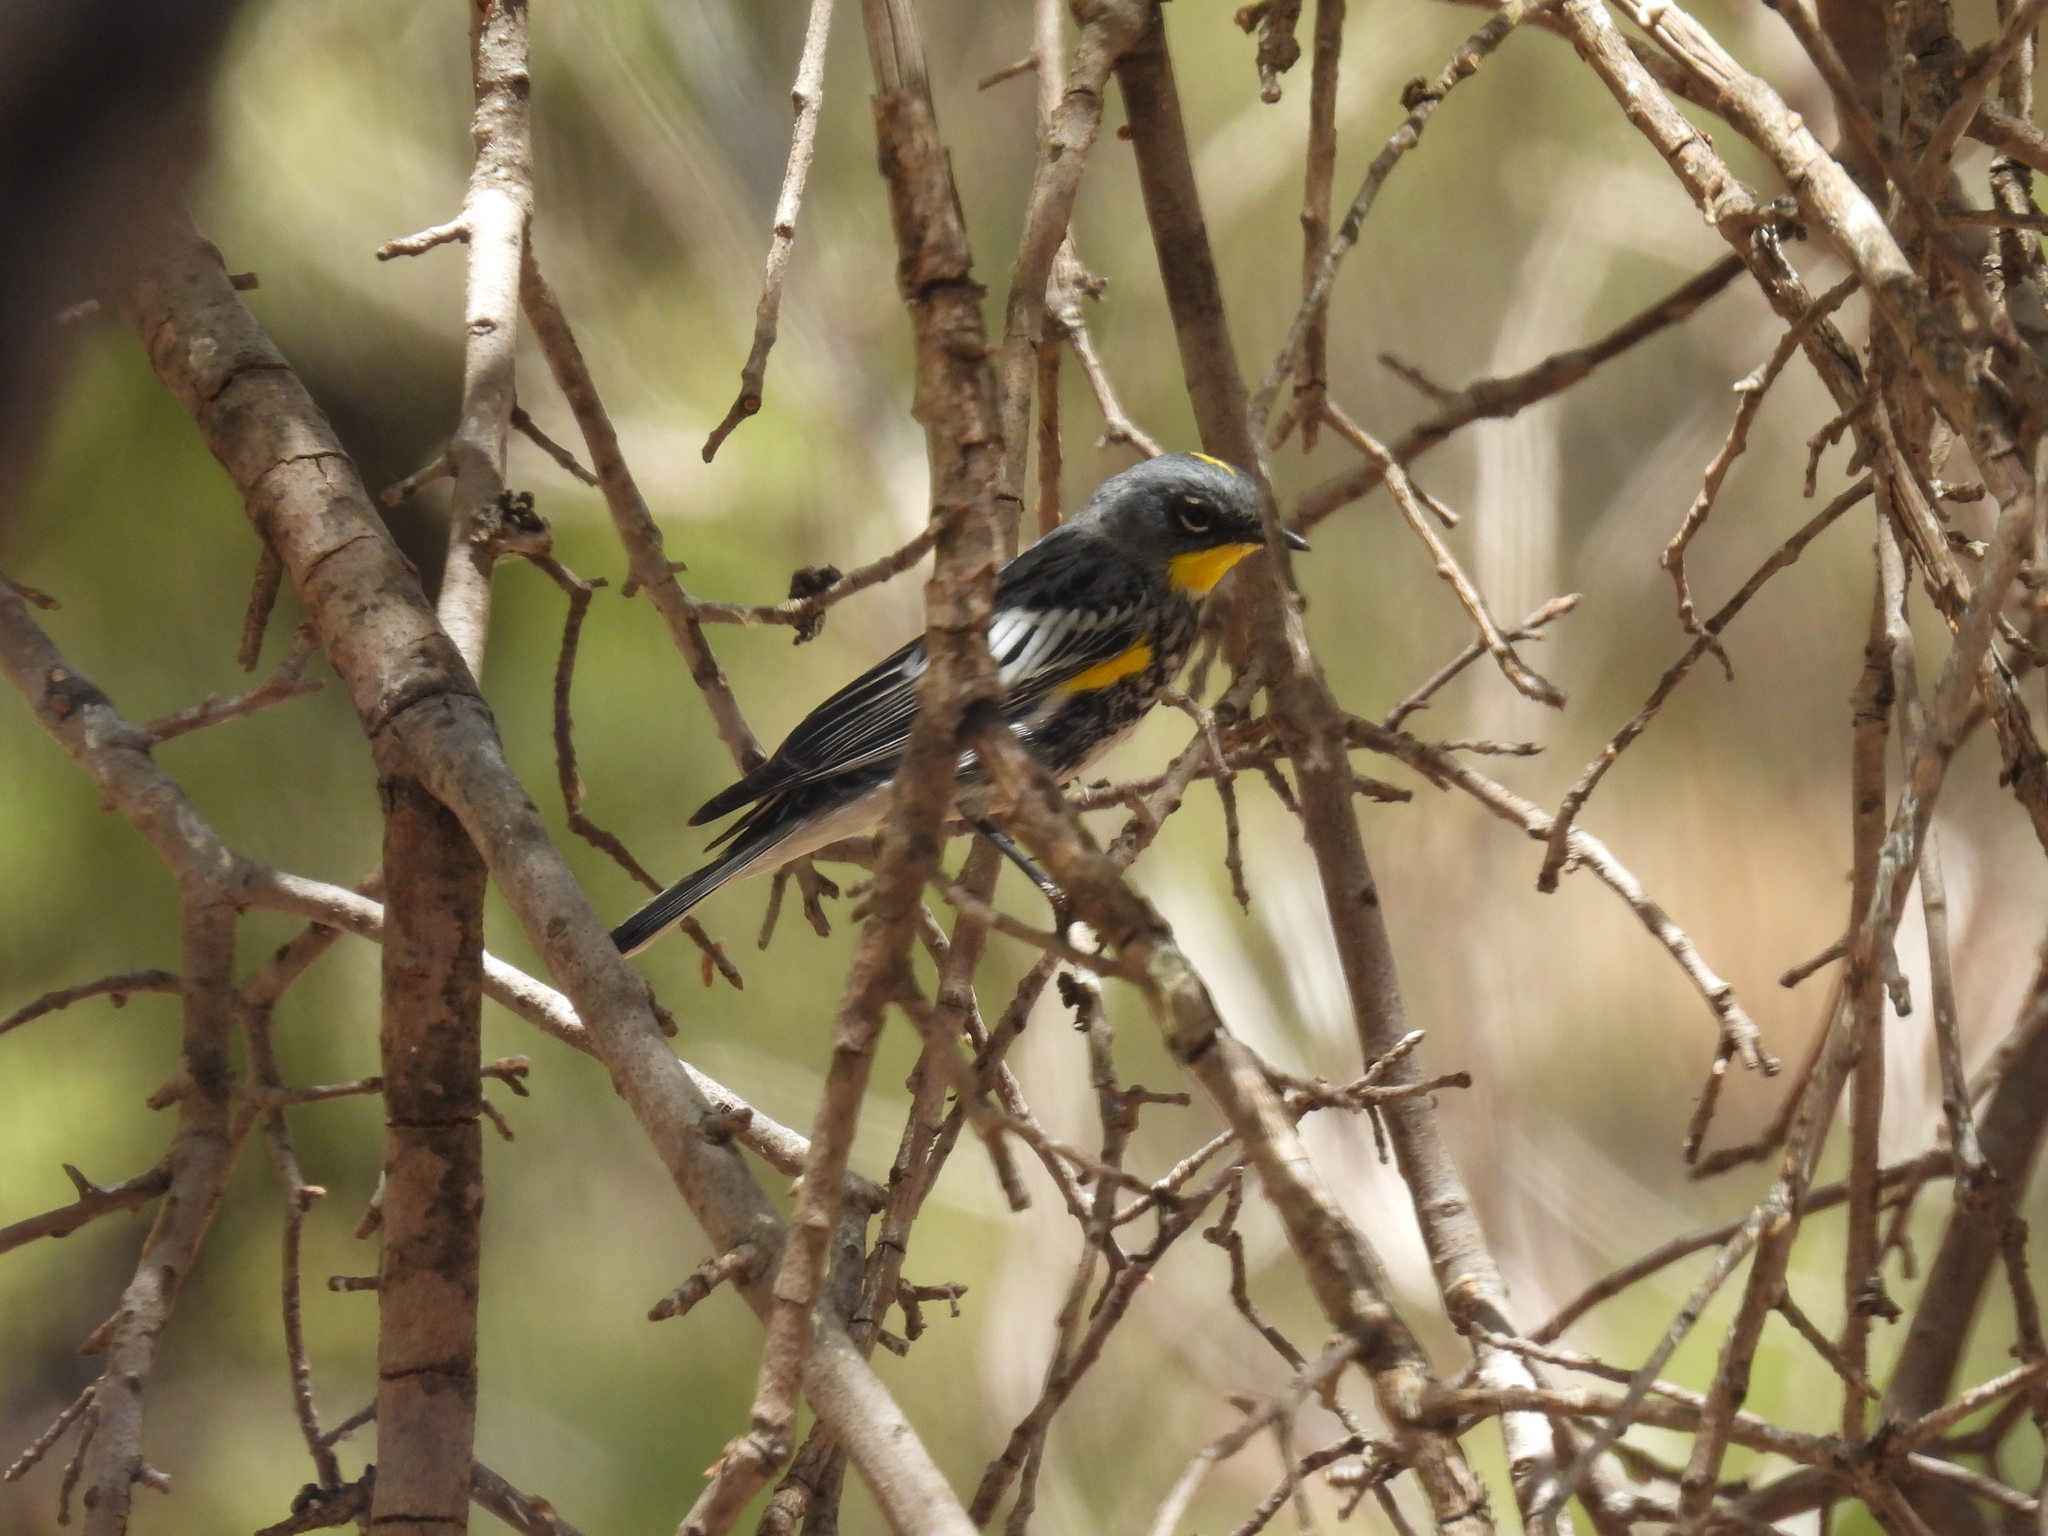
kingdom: Animalia
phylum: Chordata
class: Aves
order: Passeriformes
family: Parulidae
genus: Setophaga
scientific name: Setophaga coronata
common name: Myrtle warbler
